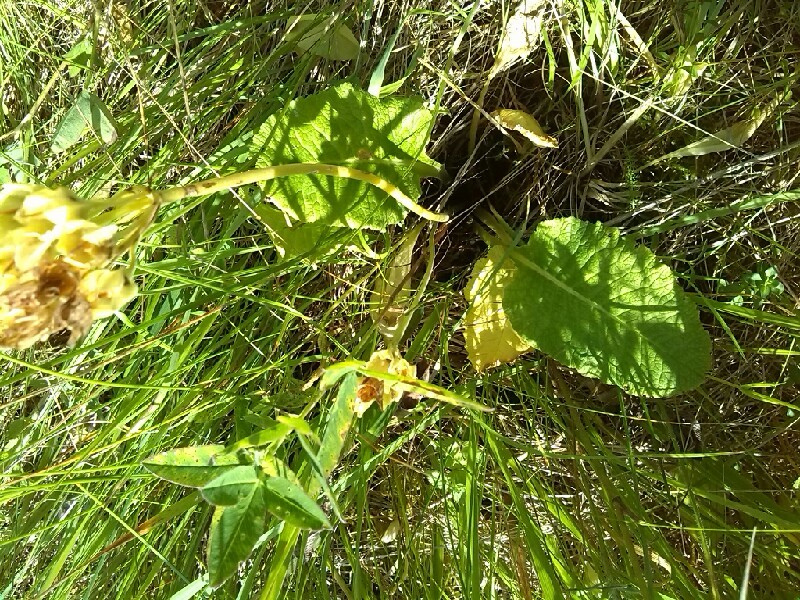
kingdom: Plantae
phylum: Tracheophyta
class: Magnoliopsida
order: Ericales
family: Primulaceae
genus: Primula
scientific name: Primula veris
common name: Cowslip
